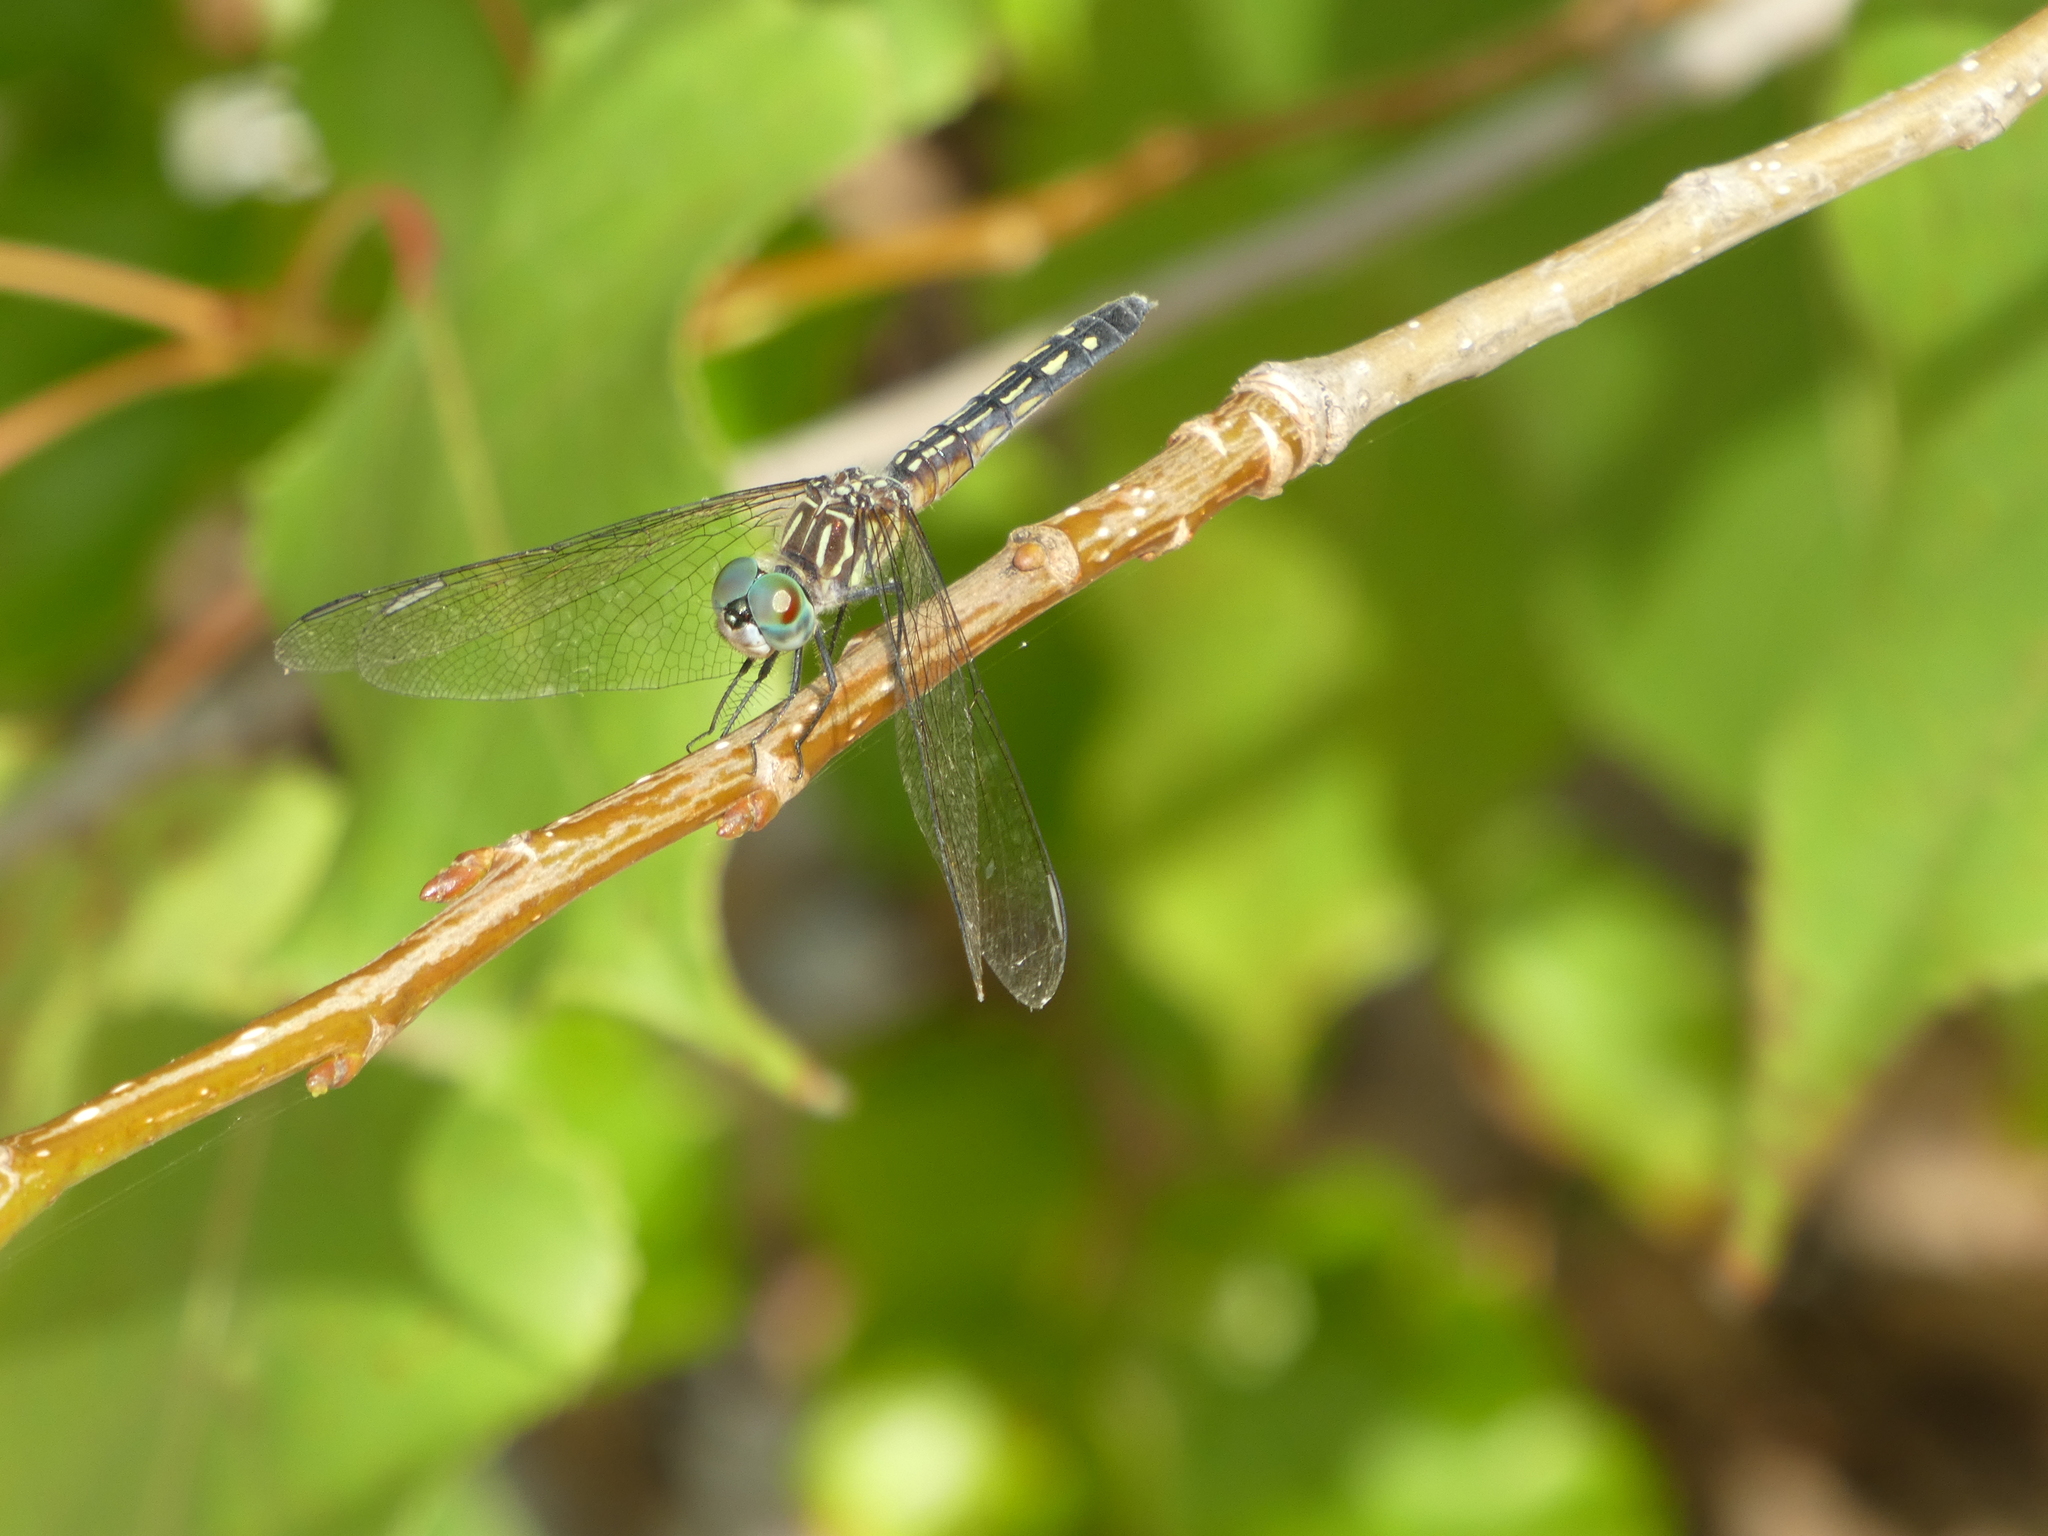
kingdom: Animalia
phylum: Arthropoda
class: Insecta
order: Odonata
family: Libellulidae
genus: Pachydiplax
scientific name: Pachydiplax longipennis
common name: Blue dasher
